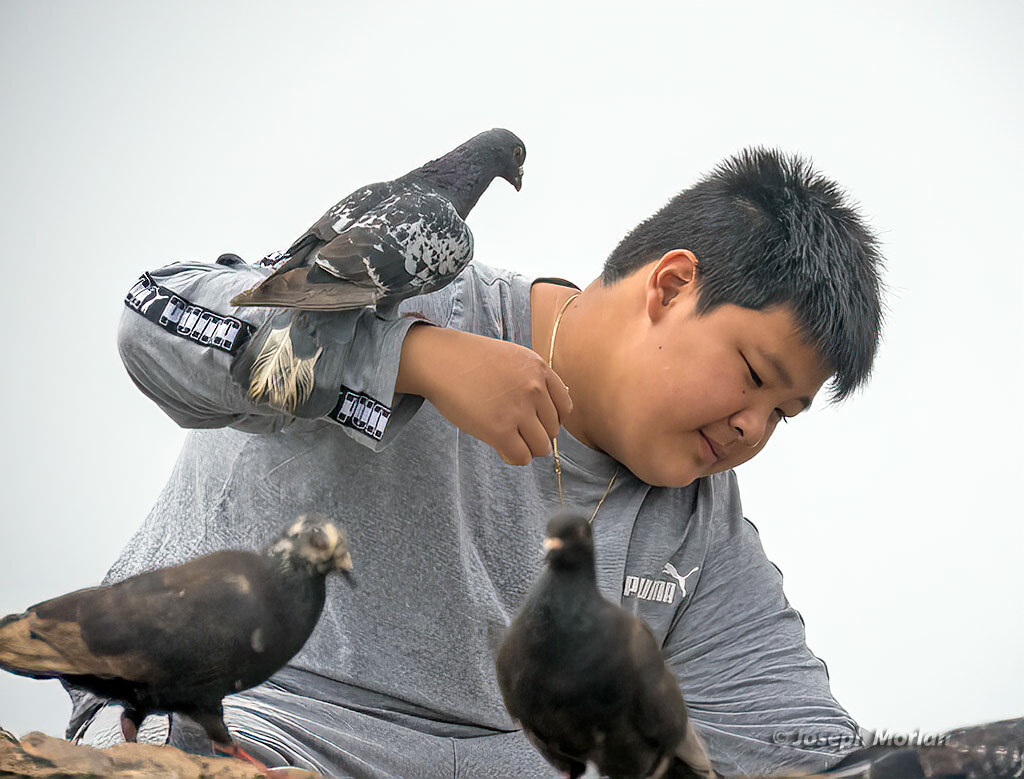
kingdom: Animalia
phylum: Chordata
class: Aves
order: Columbiformes
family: Columbidae
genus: Columba
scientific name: Columba livia
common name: Rock pigeon
